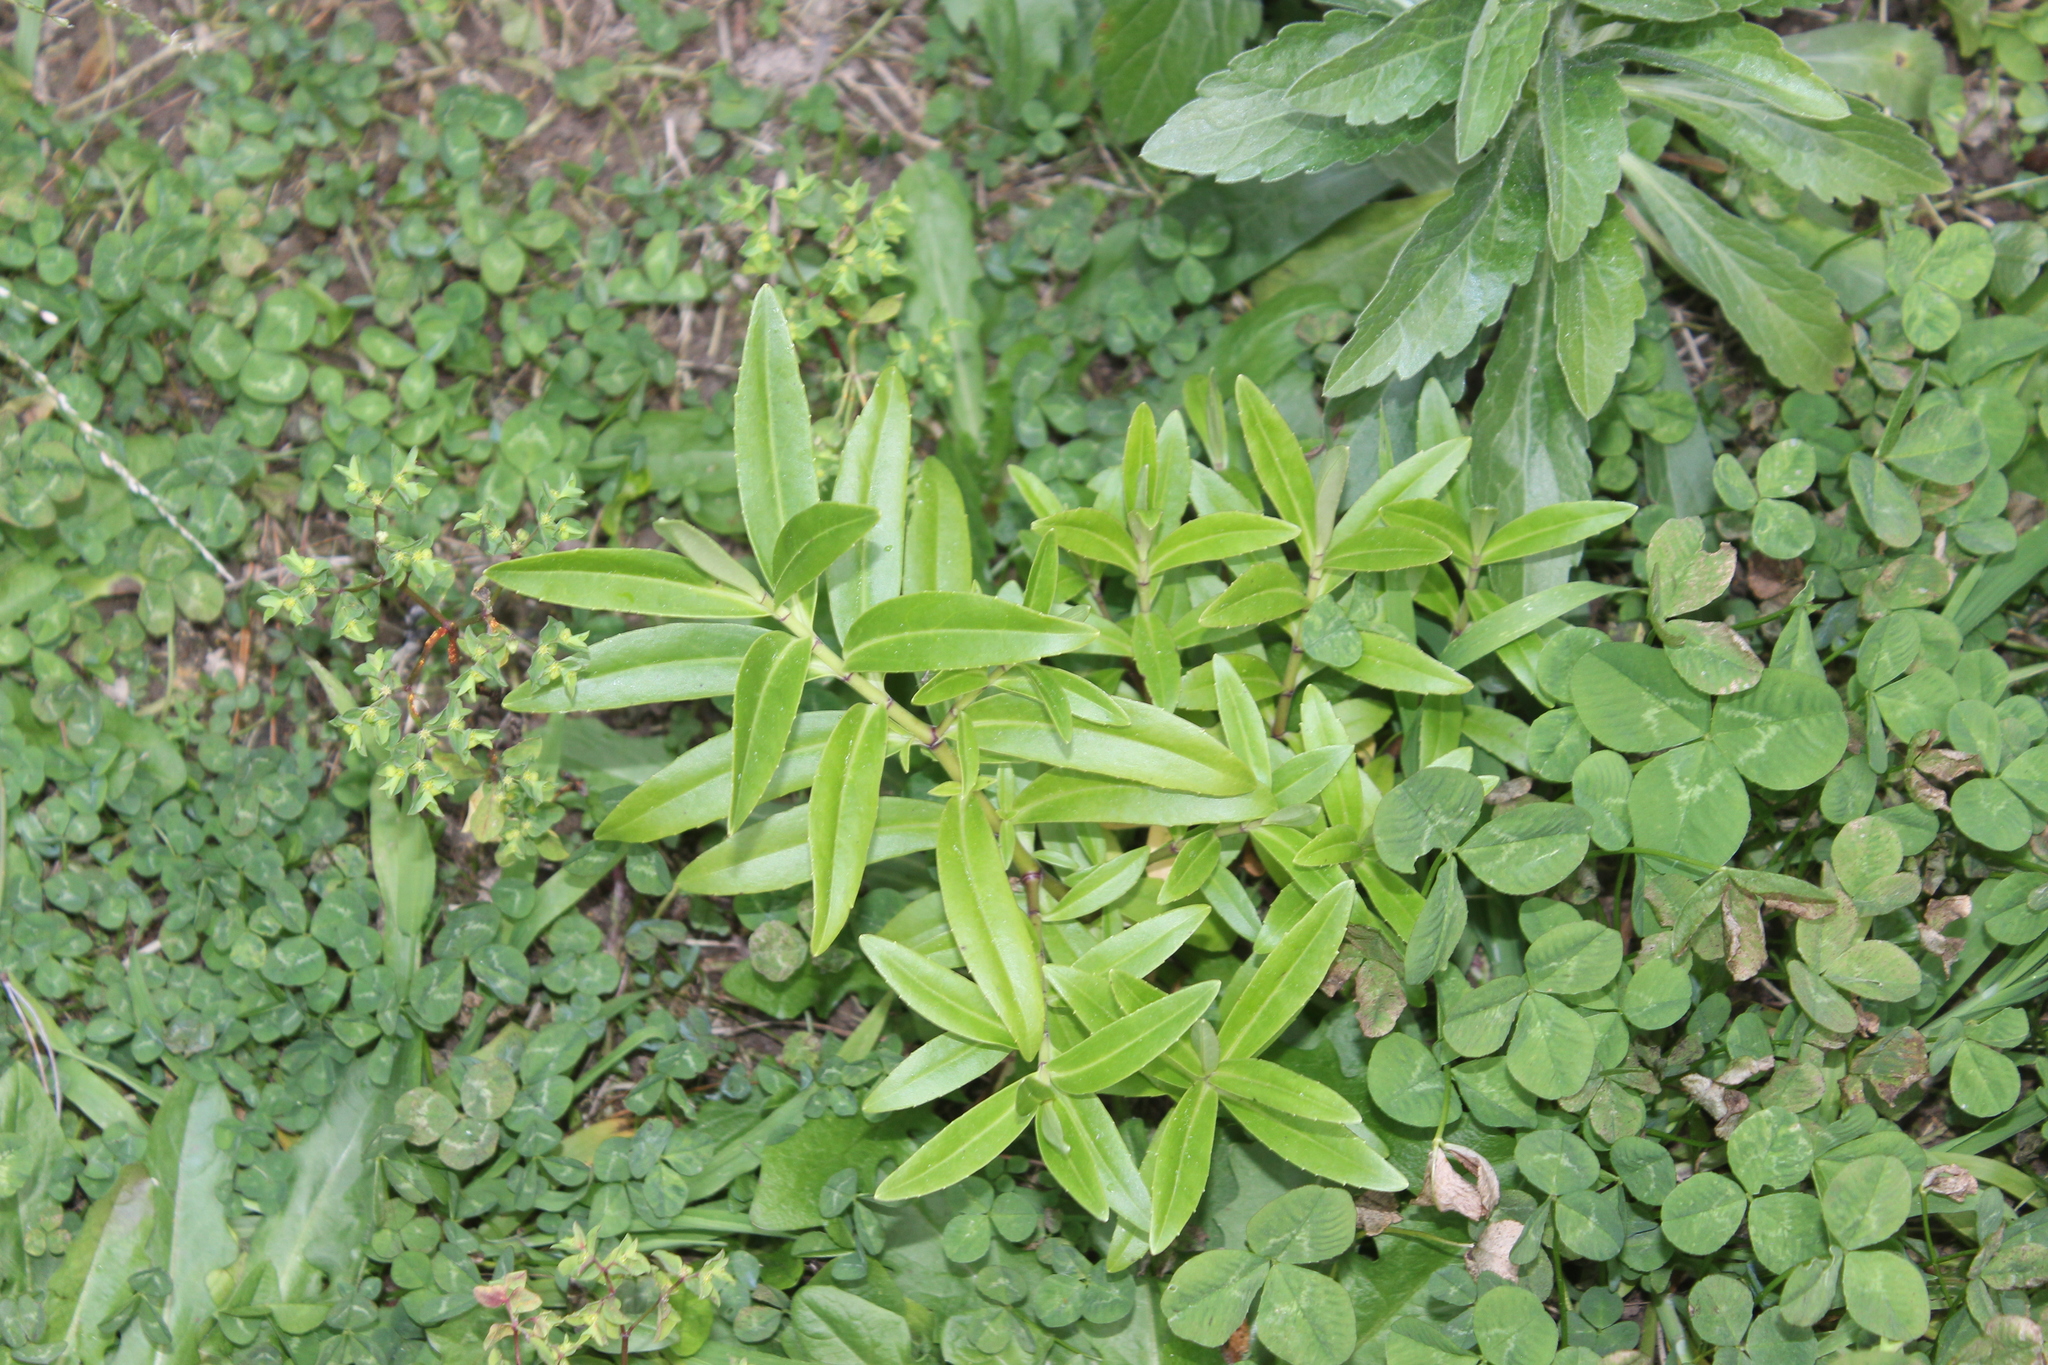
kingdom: Plantae
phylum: Tracheophyta
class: Magnoliopsida
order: Lamiales
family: Plantaginaceae
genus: Veronica
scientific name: Veronica stricta
